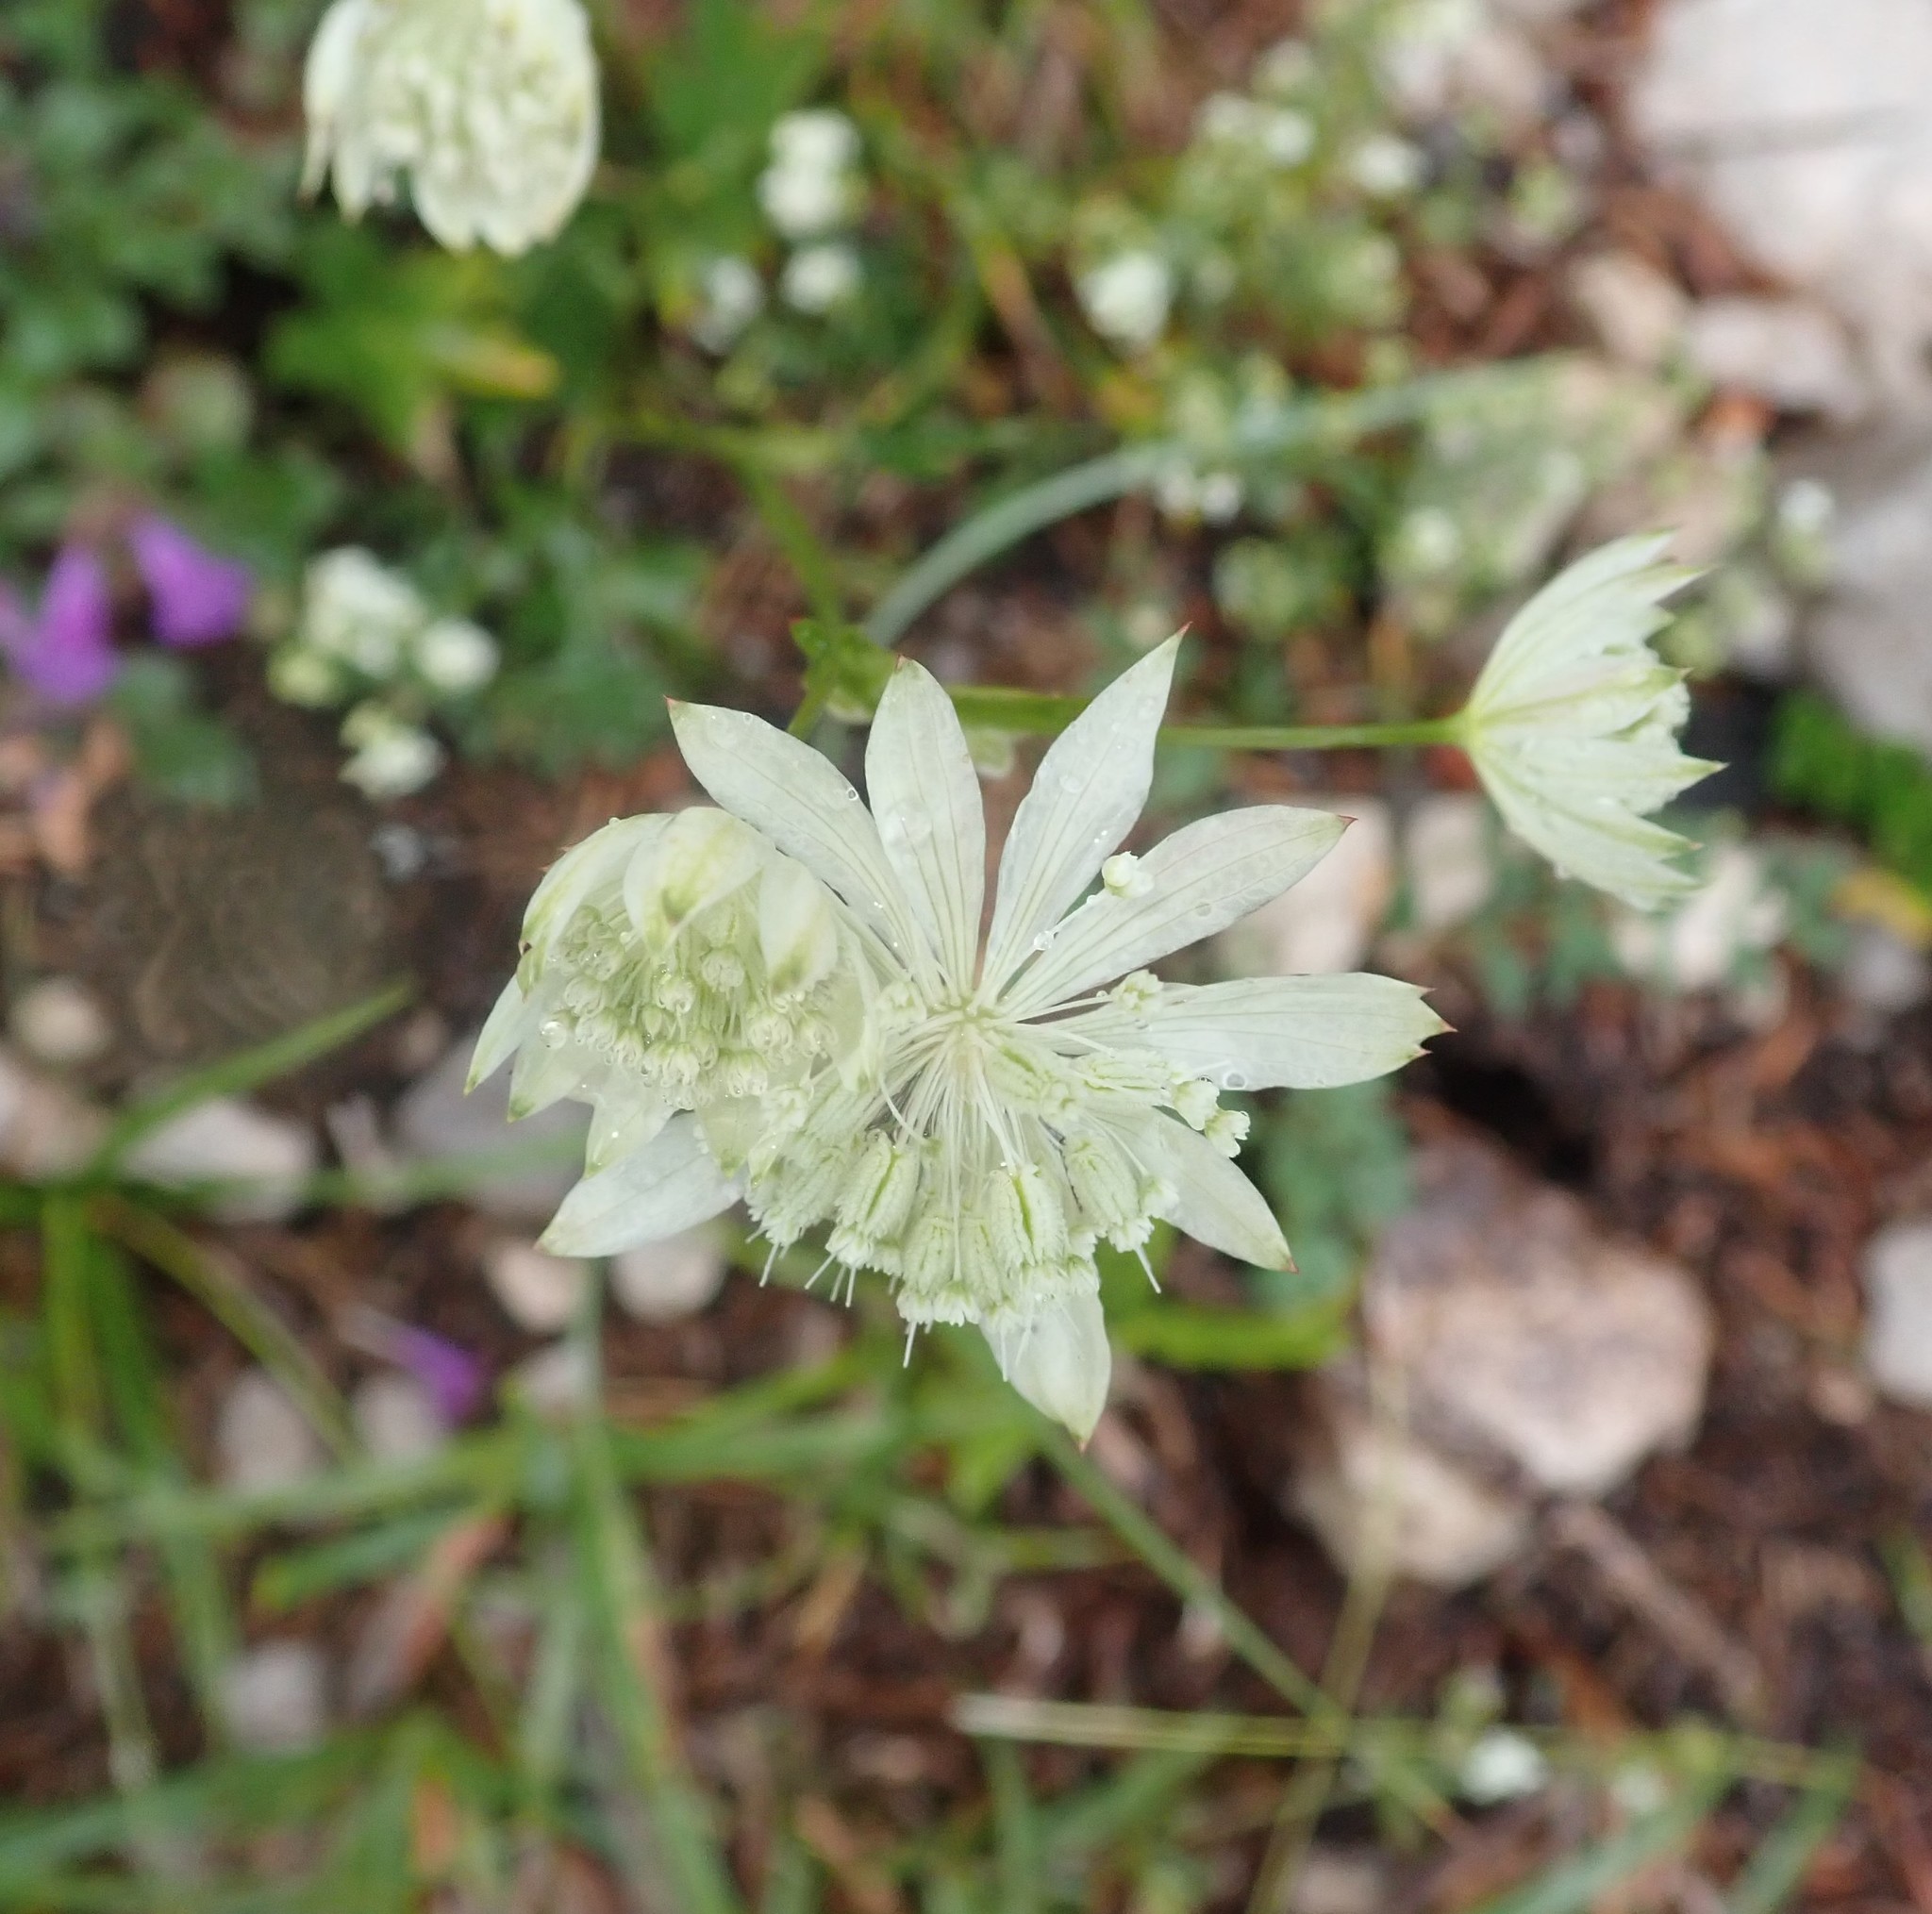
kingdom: Plantae
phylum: Tracheophyta
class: Magnoliopsida
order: Apiales
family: Apiaceae
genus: Astrantia
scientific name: Astrantia major
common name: Greater masterwort
